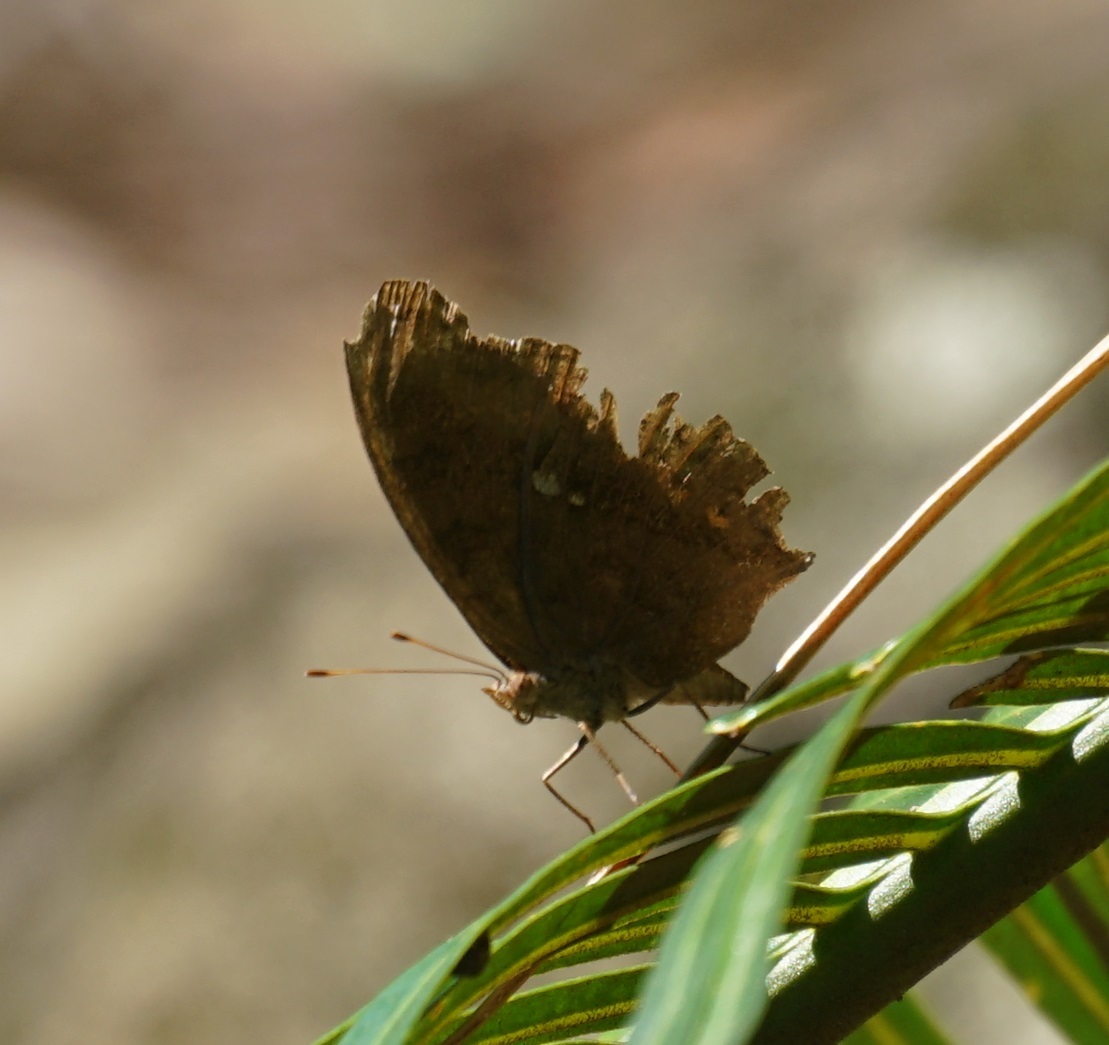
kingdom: Animalia
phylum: Arthropoda
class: Insecta
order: Lepidoptera
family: Nymphalidae
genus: Junonia
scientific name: Junonia hedonia
